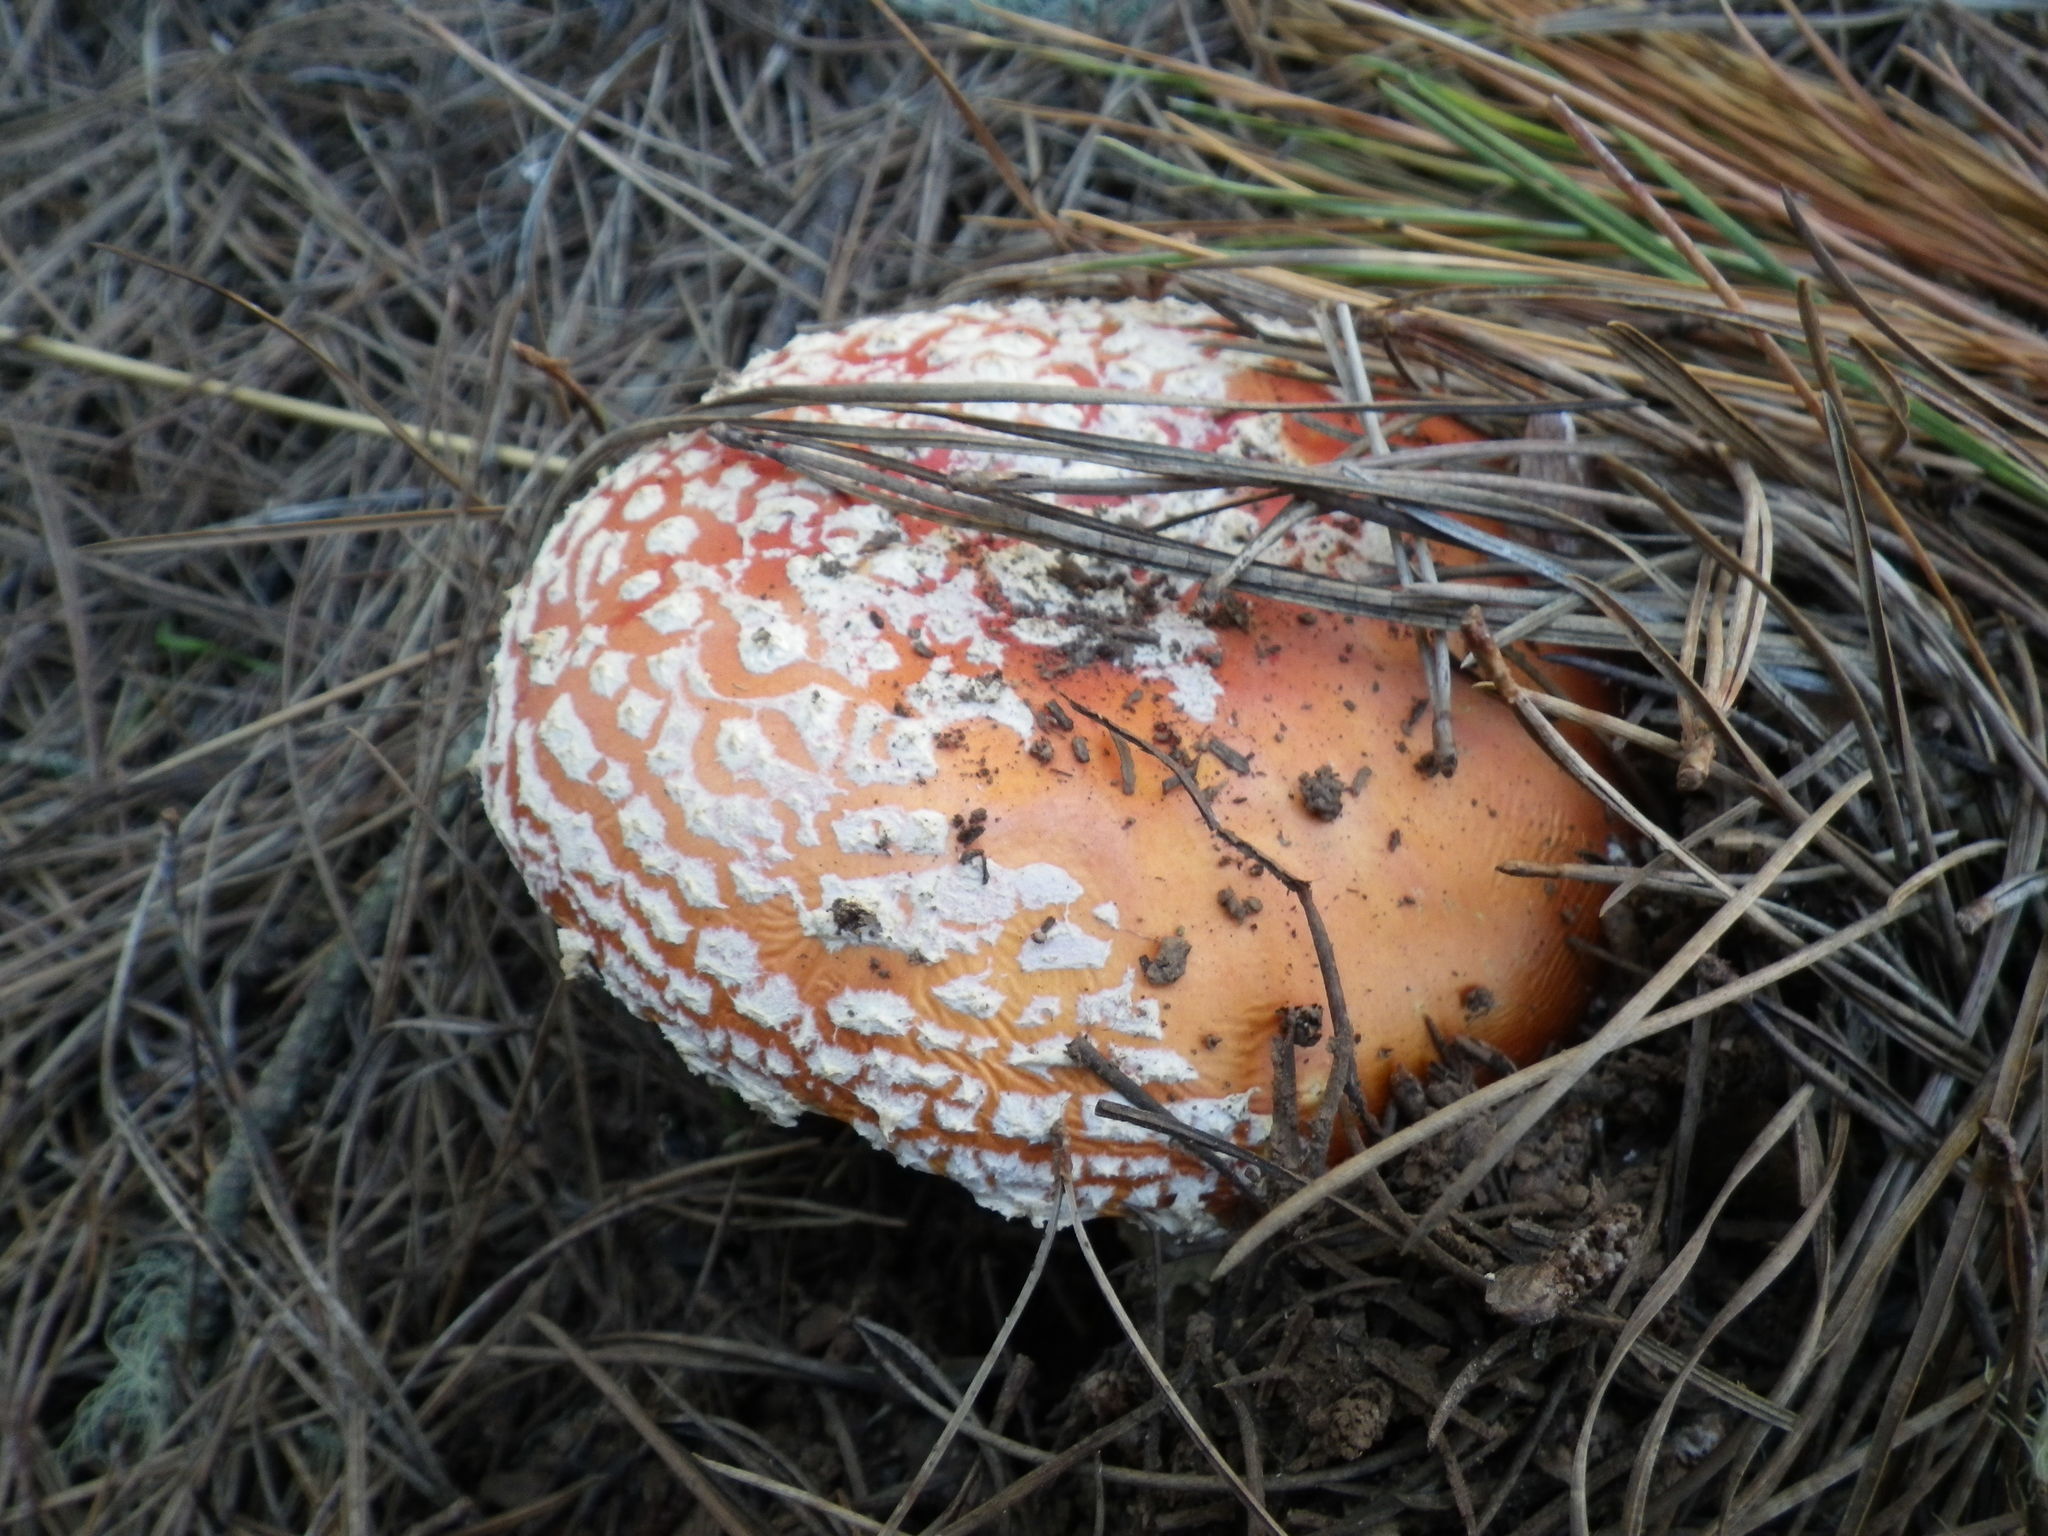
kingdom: Fungi
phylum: Basidiomycota
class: Agaricomycetes
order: Agaricales
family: Amanitaceae
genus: Amanita
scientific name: Amanita muscaria
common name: Fly agaric
